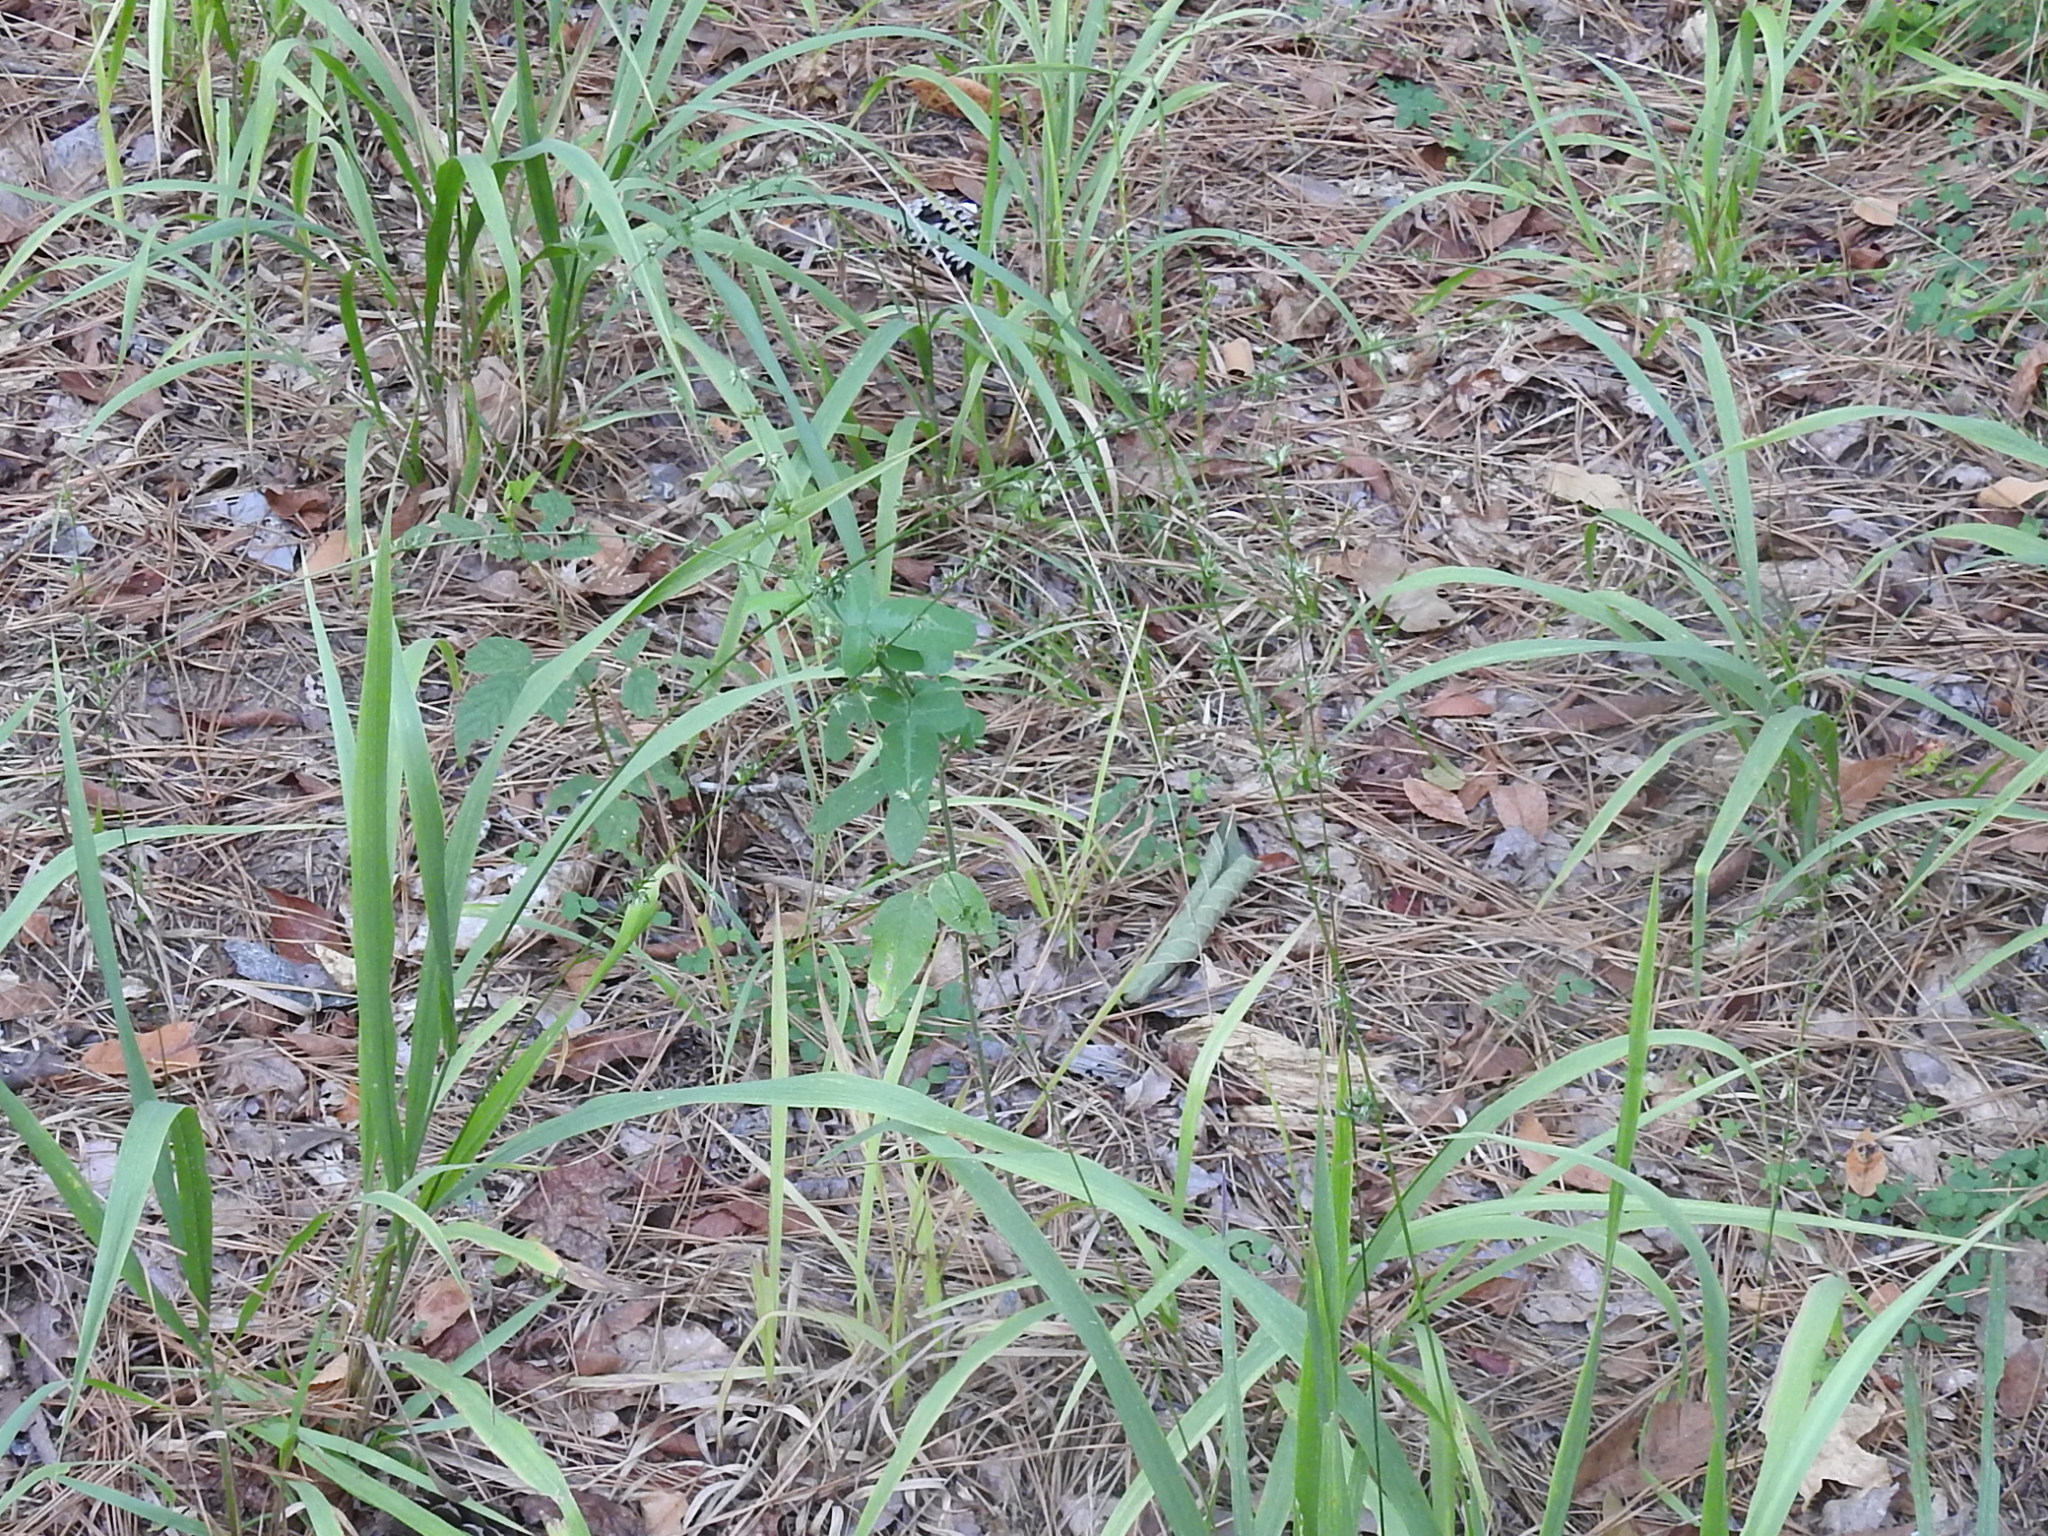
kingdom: Plantae
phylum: Tracheophyta
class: Liliopsida
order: Poales
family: Poaceae
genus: Chasmanthium
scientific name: Chasmanthium laxum
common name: Slender chasmanthium
